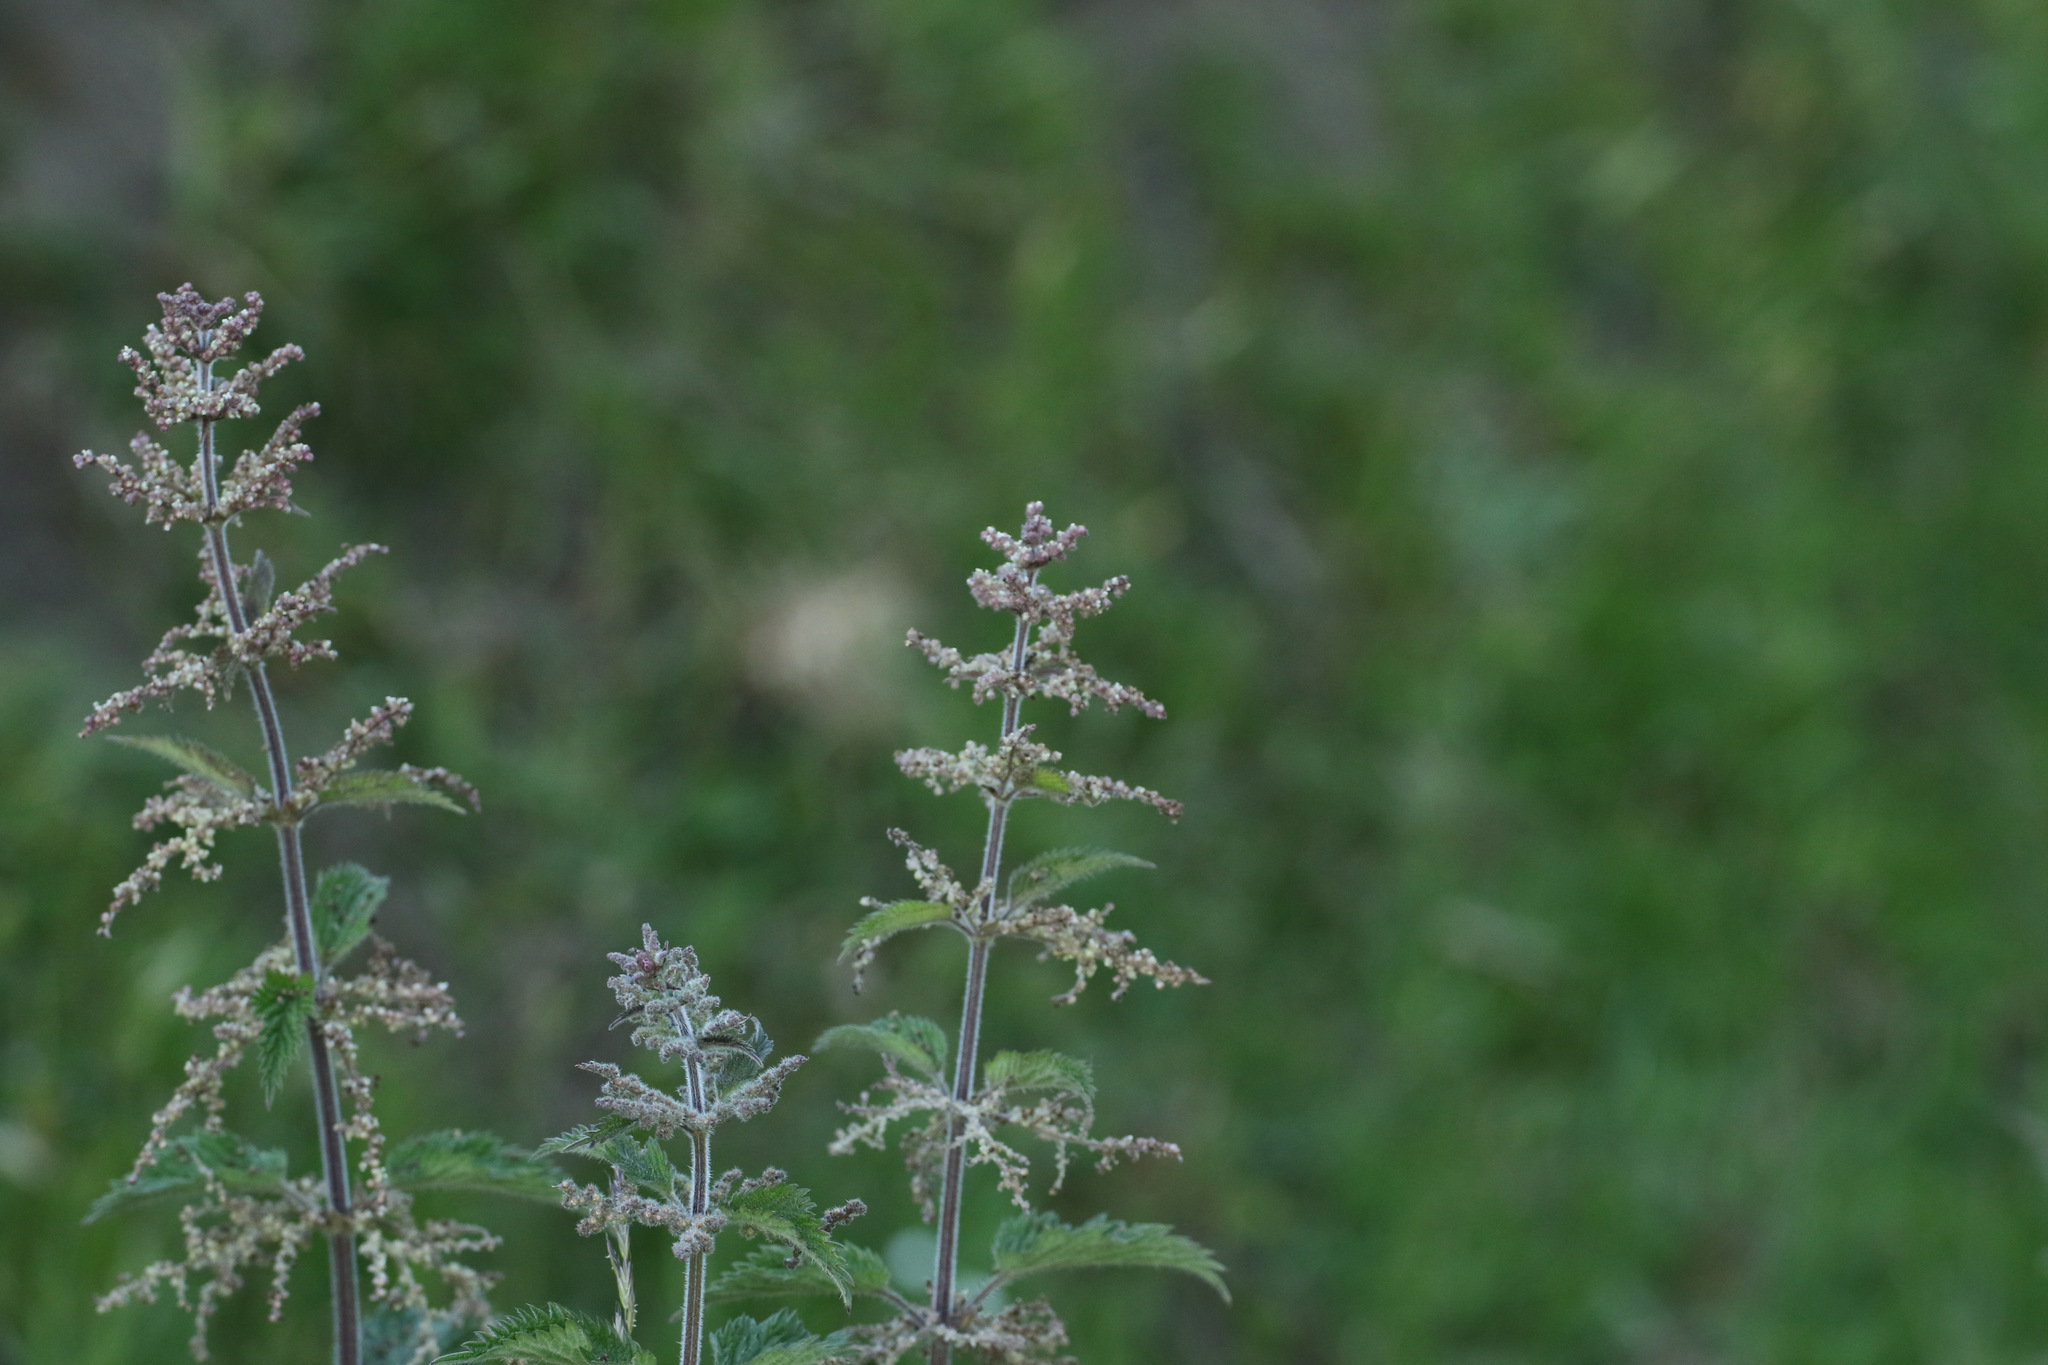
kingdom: Plantae
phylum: Tracheophyta
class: Magnoliopsida
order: Rosales
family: Urticaceae
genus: Urtica
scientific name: Urtica dioica
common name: Common nettle
